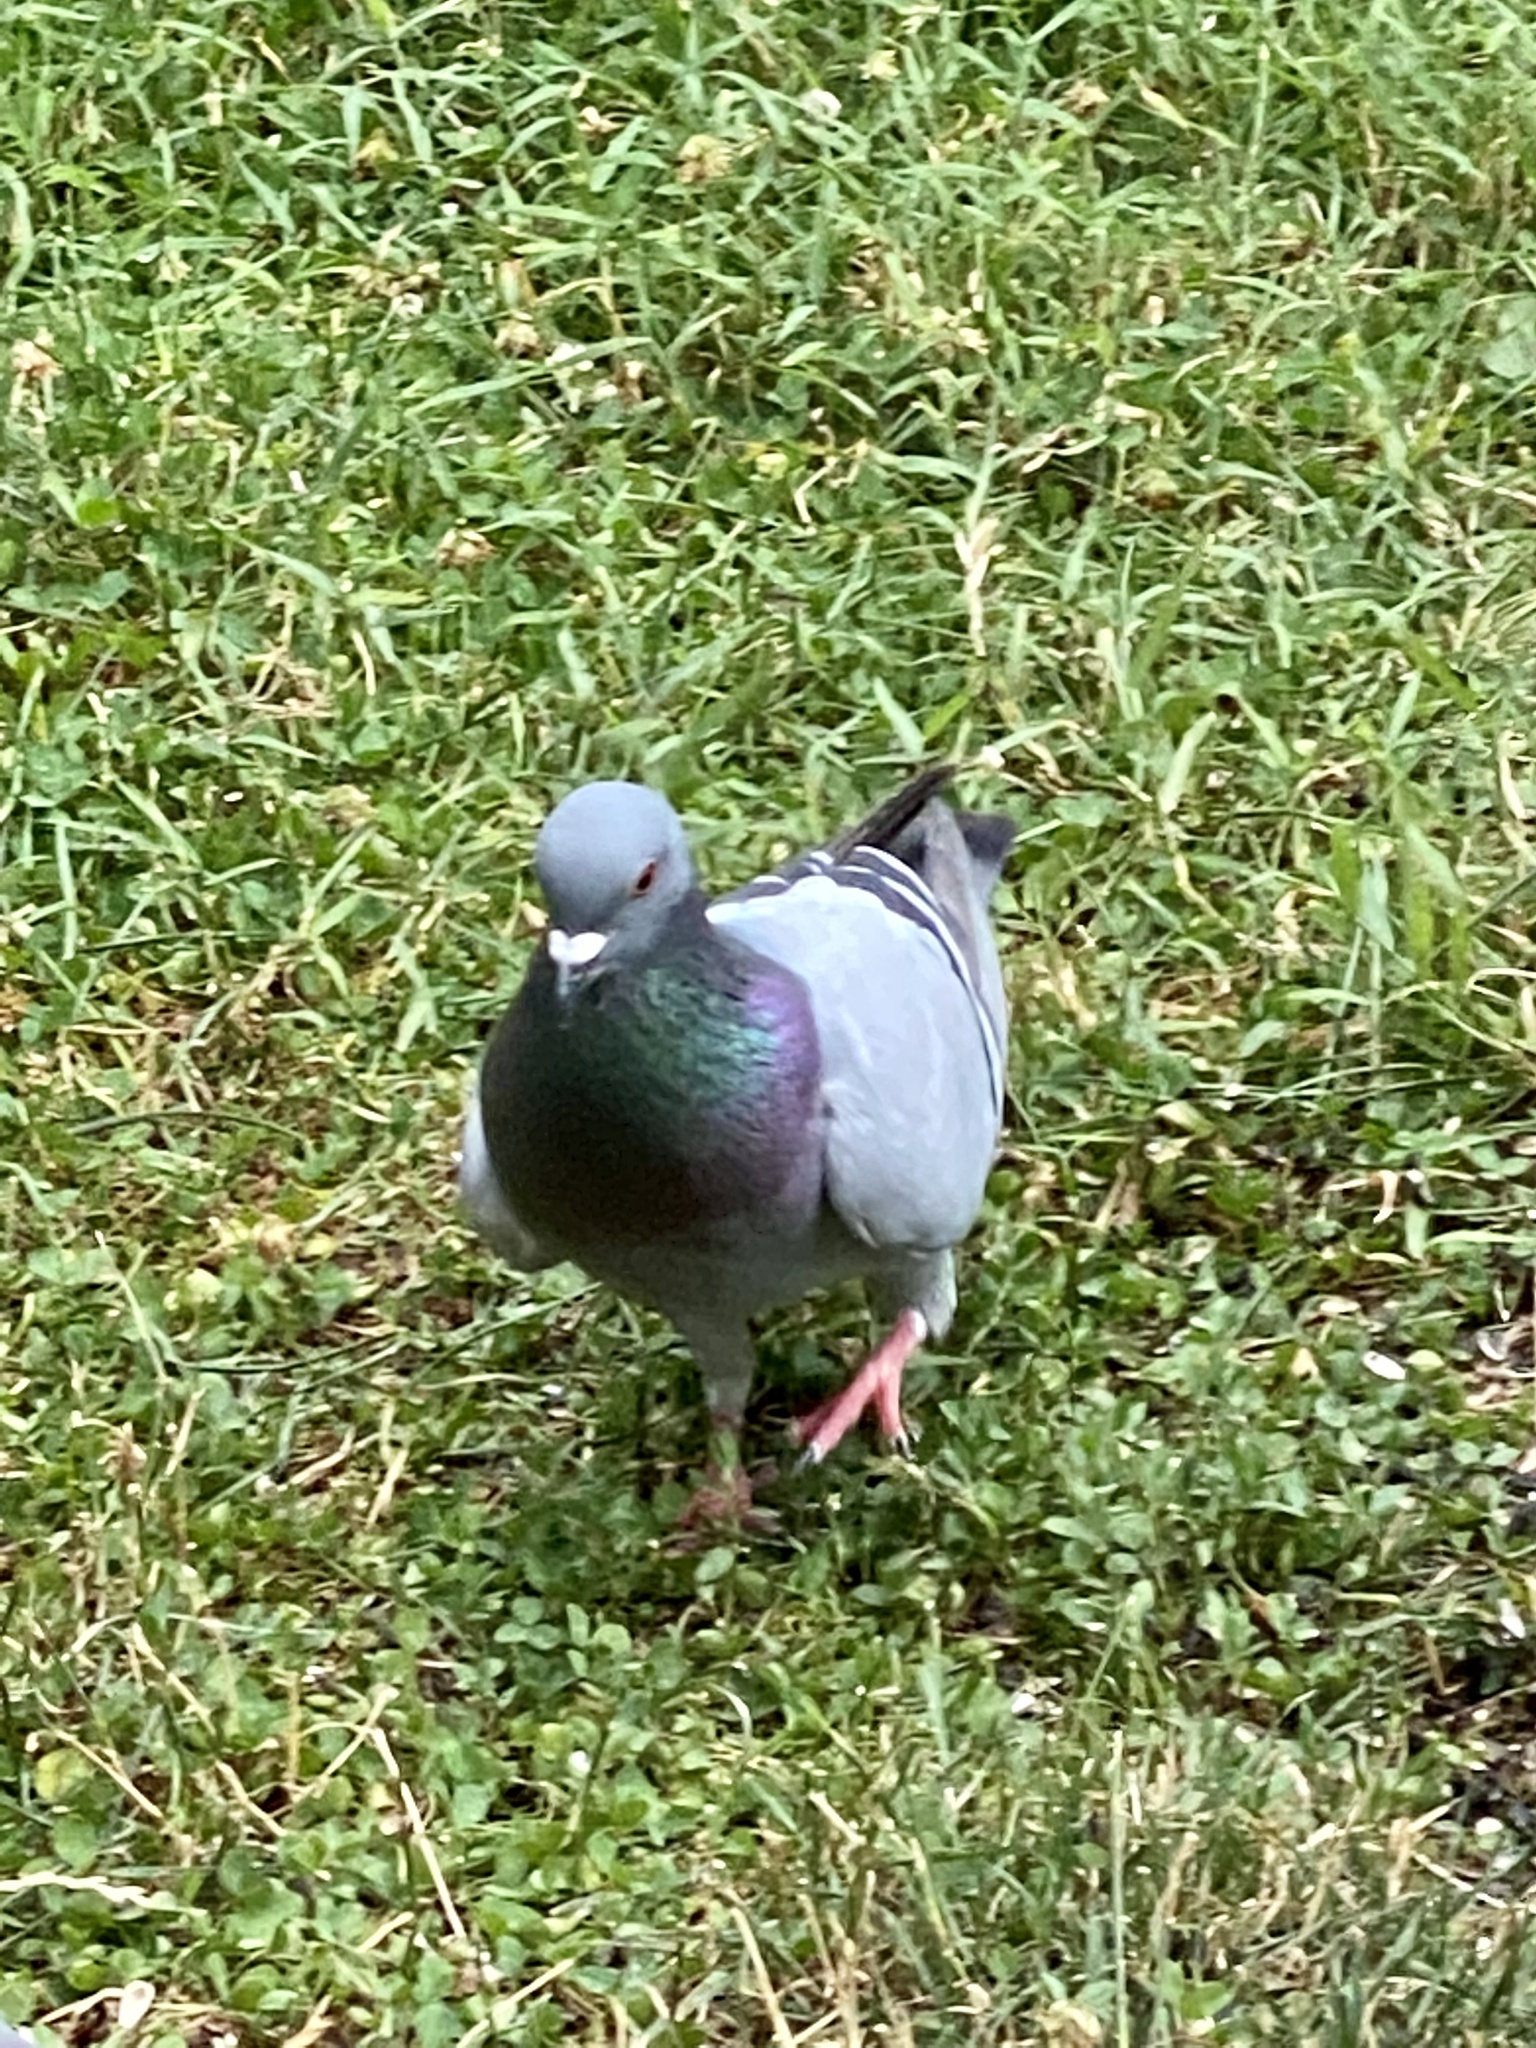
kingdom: Animalia
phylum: Chordata
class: Aves
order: Columbiformes
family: Columbidae
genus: Columba
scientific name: Columba livia
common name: Rock pigeon
